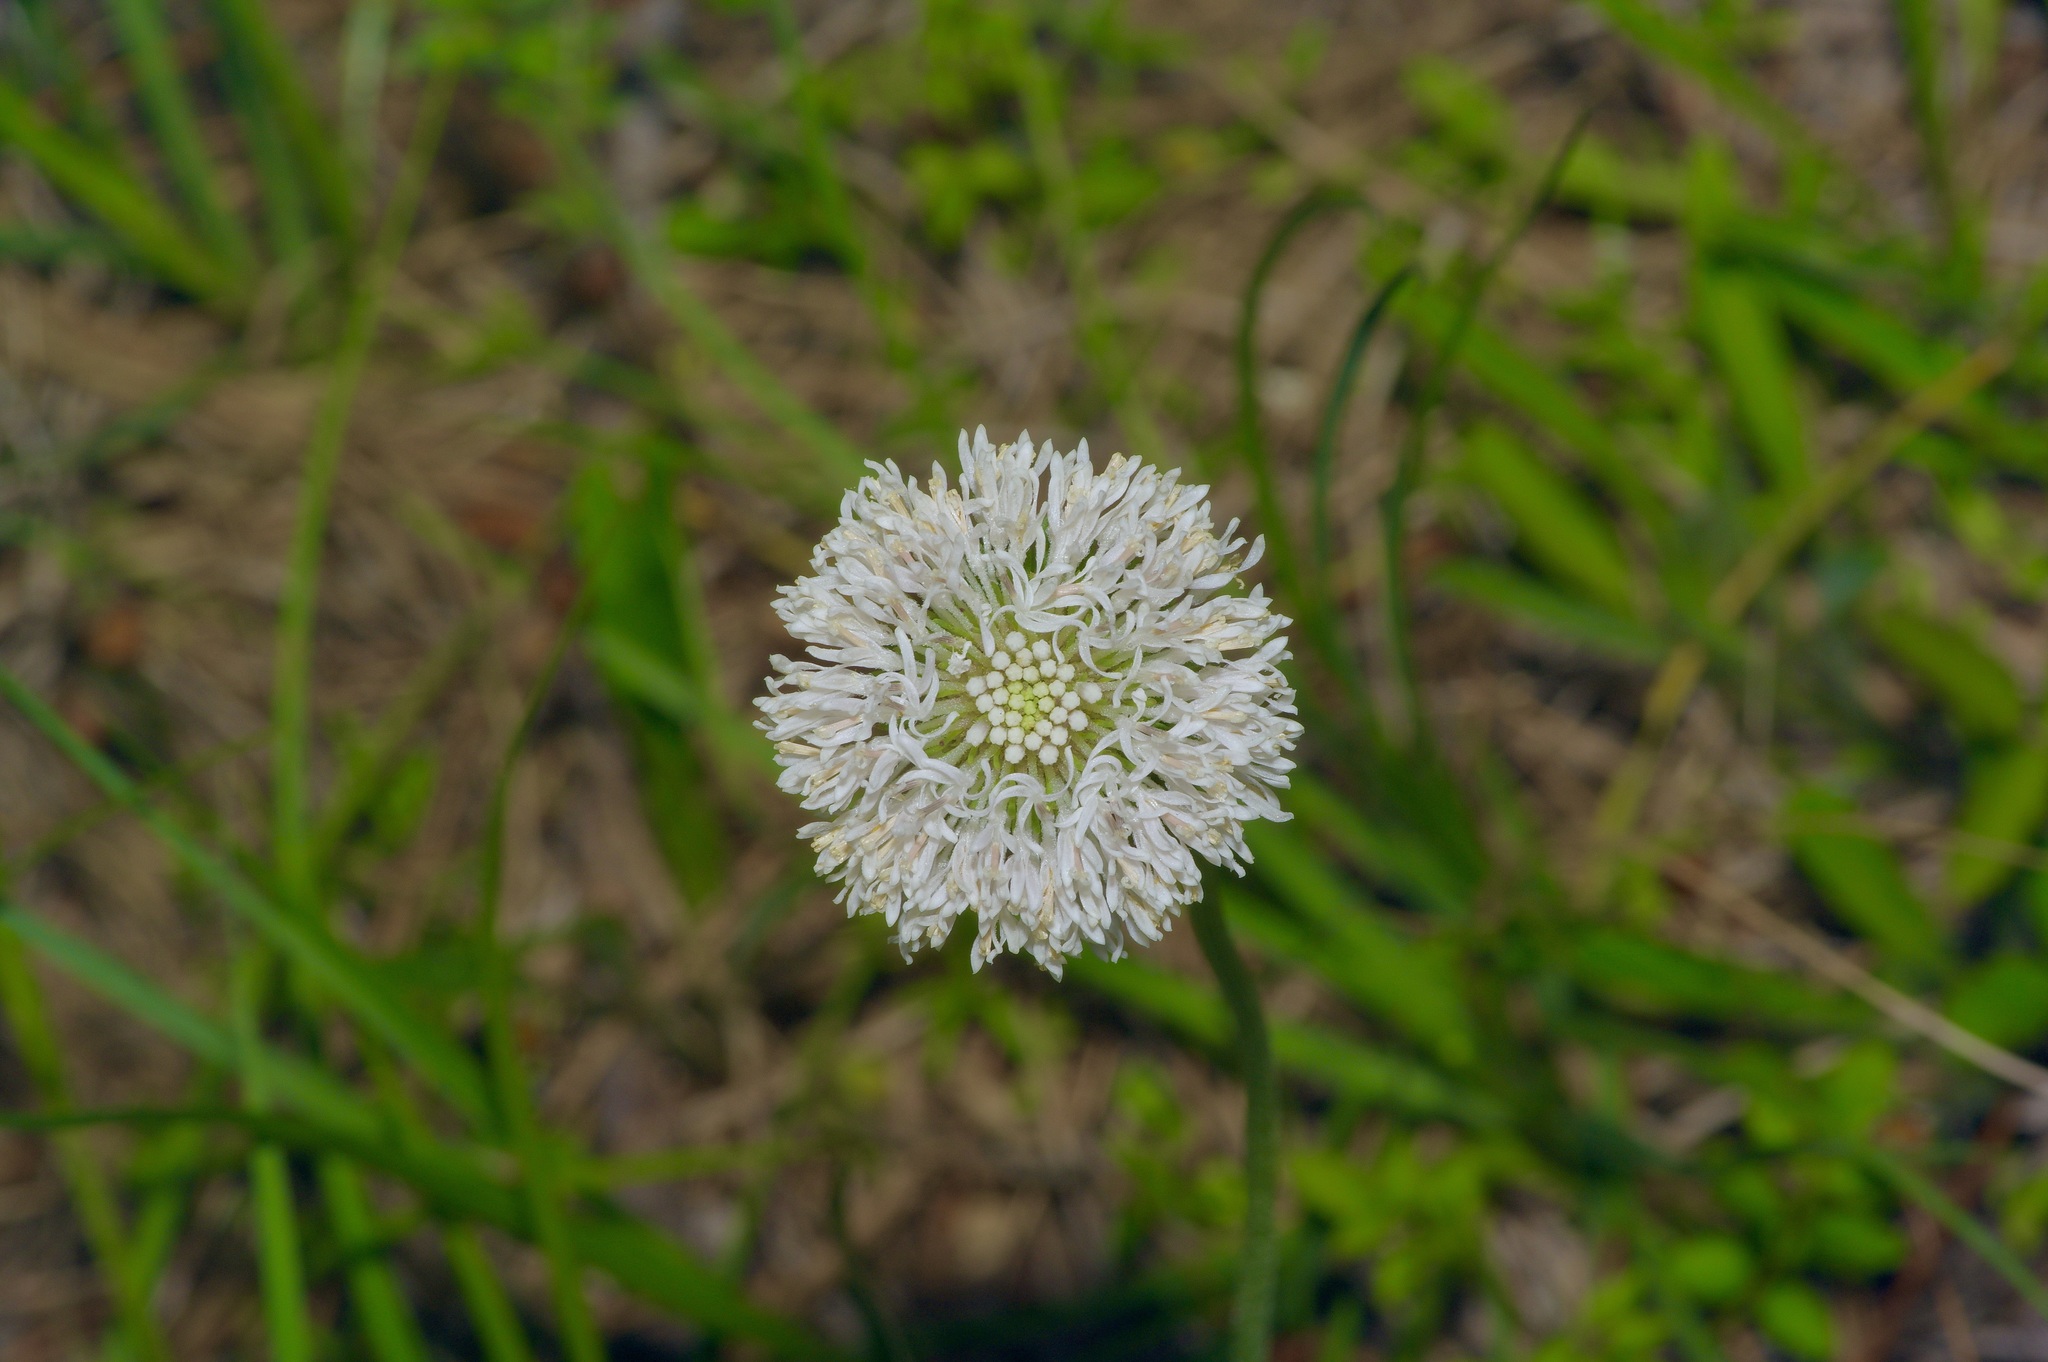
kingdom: Plantae
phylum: Tracheophyta
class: Magnoliopsida
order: Asterales
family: Asteraceae
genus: Marshallia
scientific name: Marshallia caespitosa
